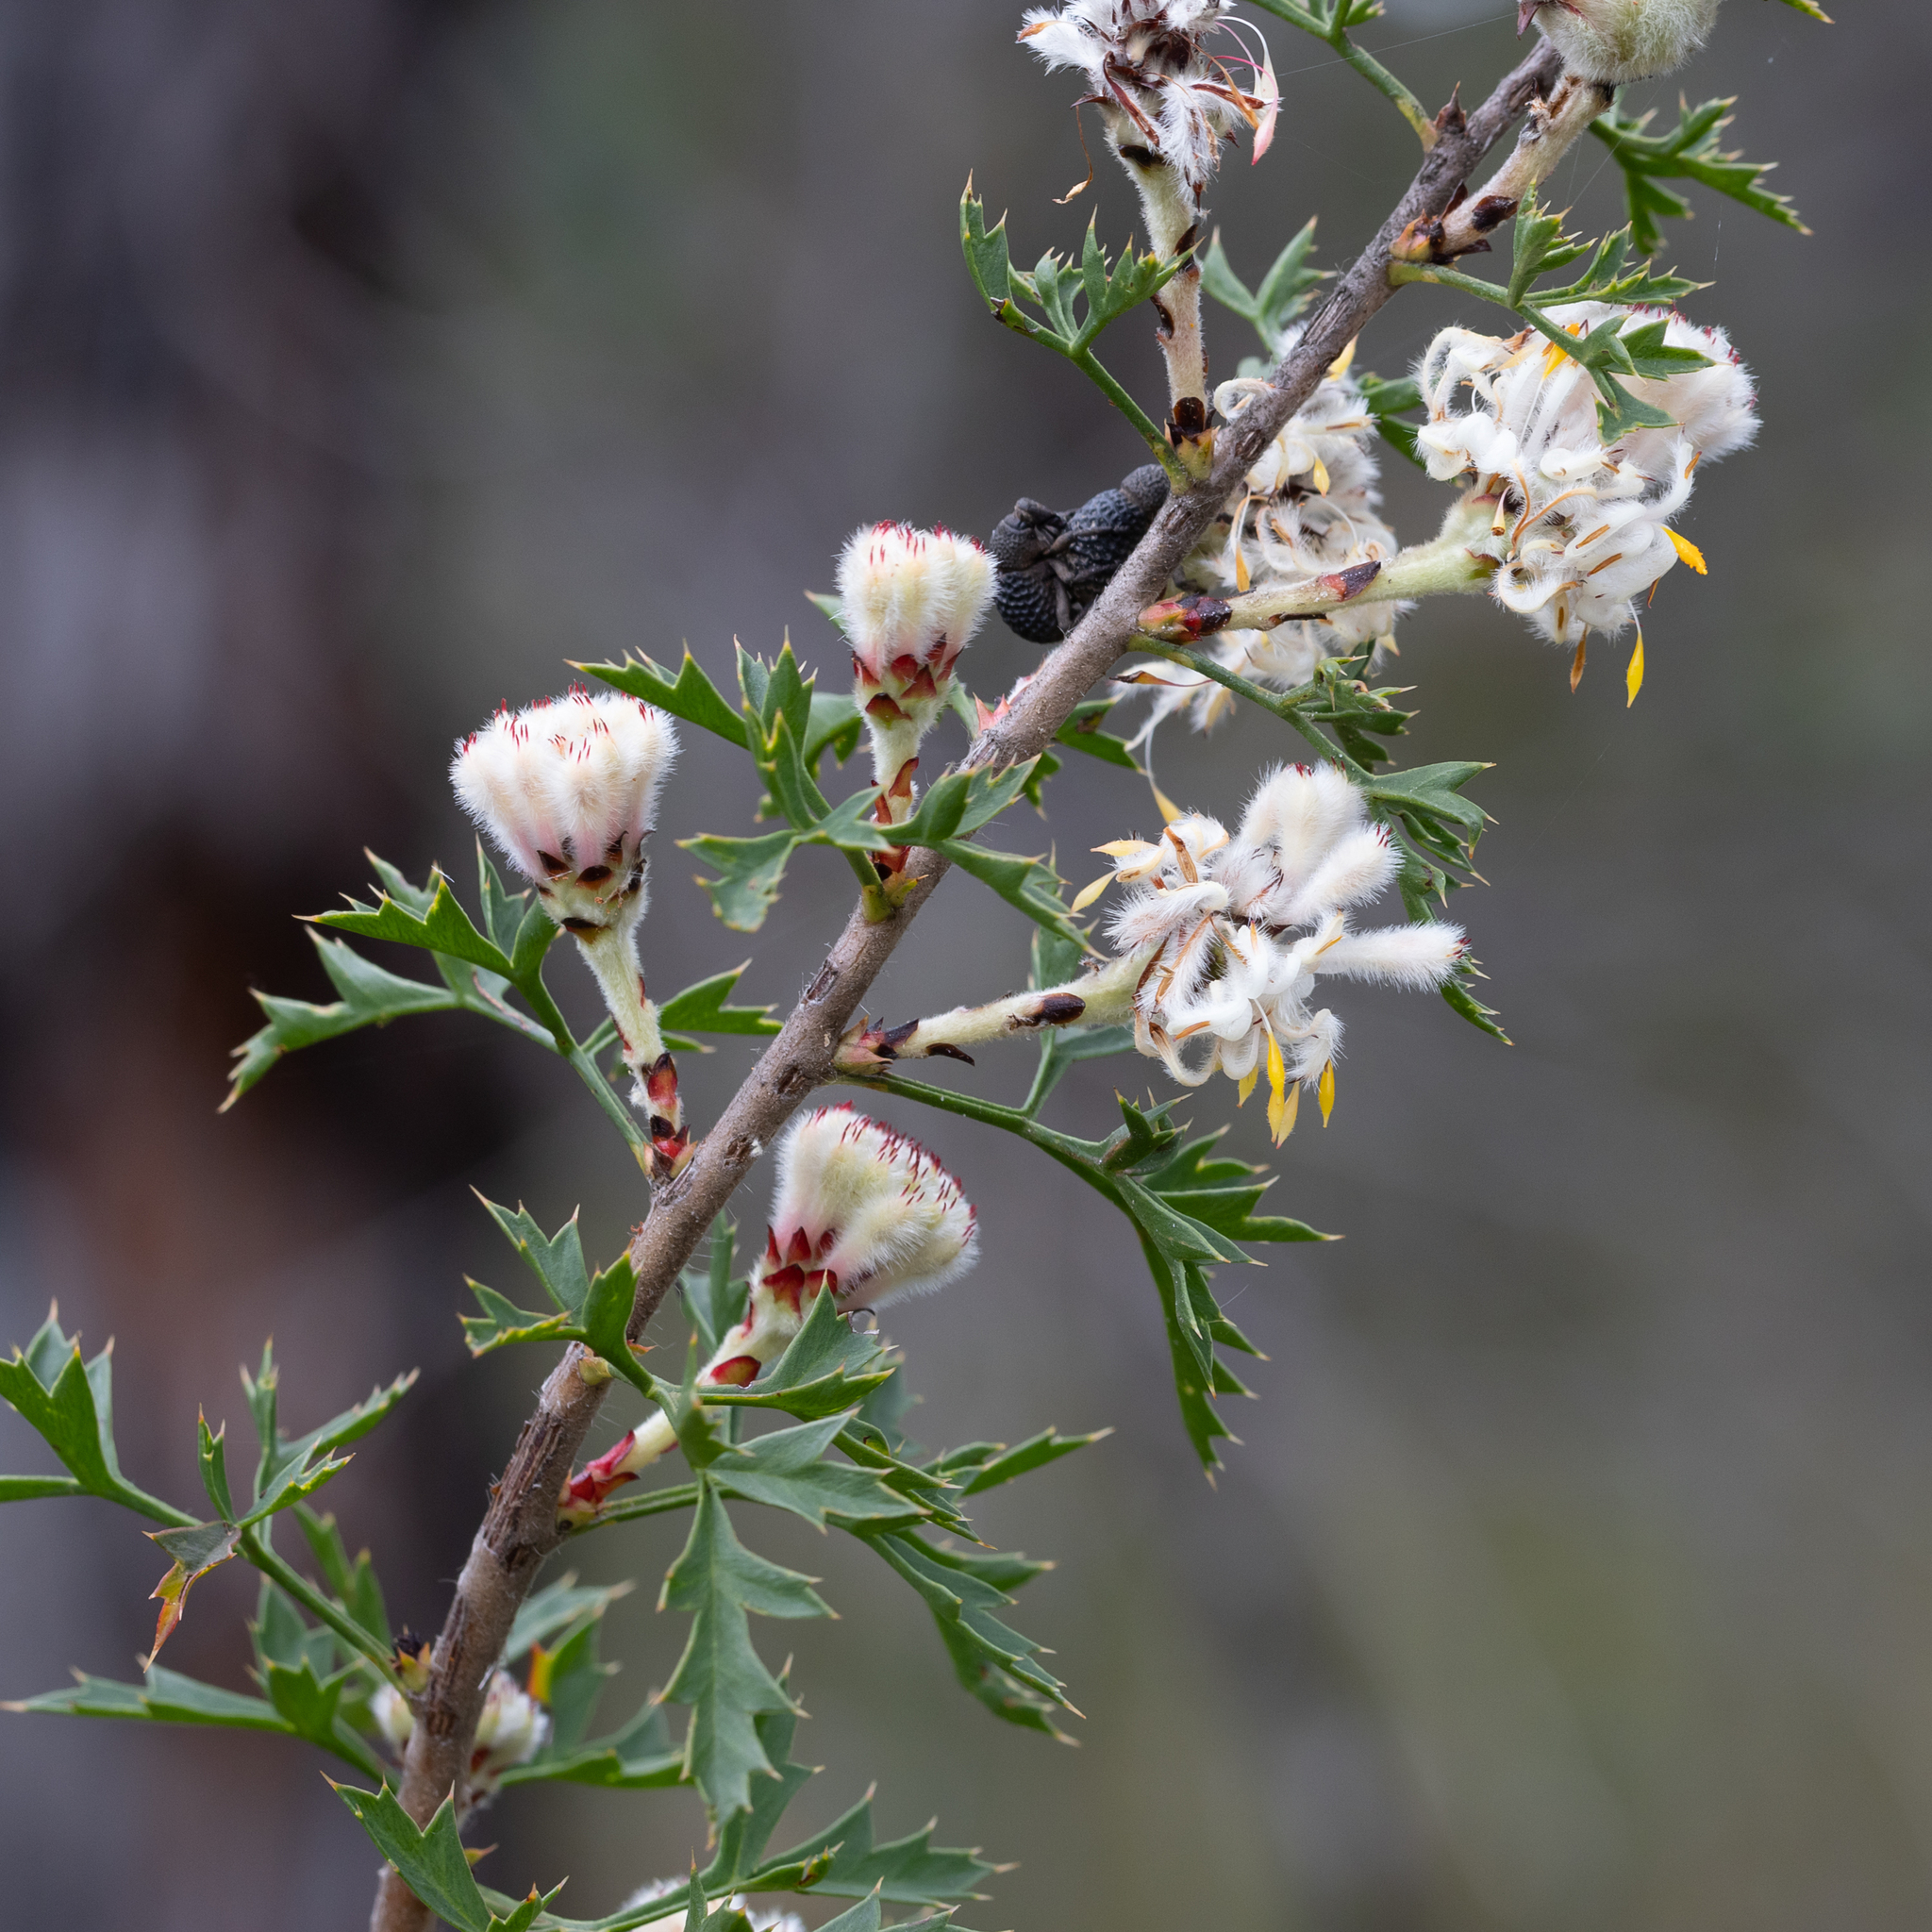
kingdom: Plantae
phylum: Tracheophyta
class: Magnoliopsida
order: Proteales
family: Proteaceae
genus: Petrophile
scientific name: Petrophile diversifolia
